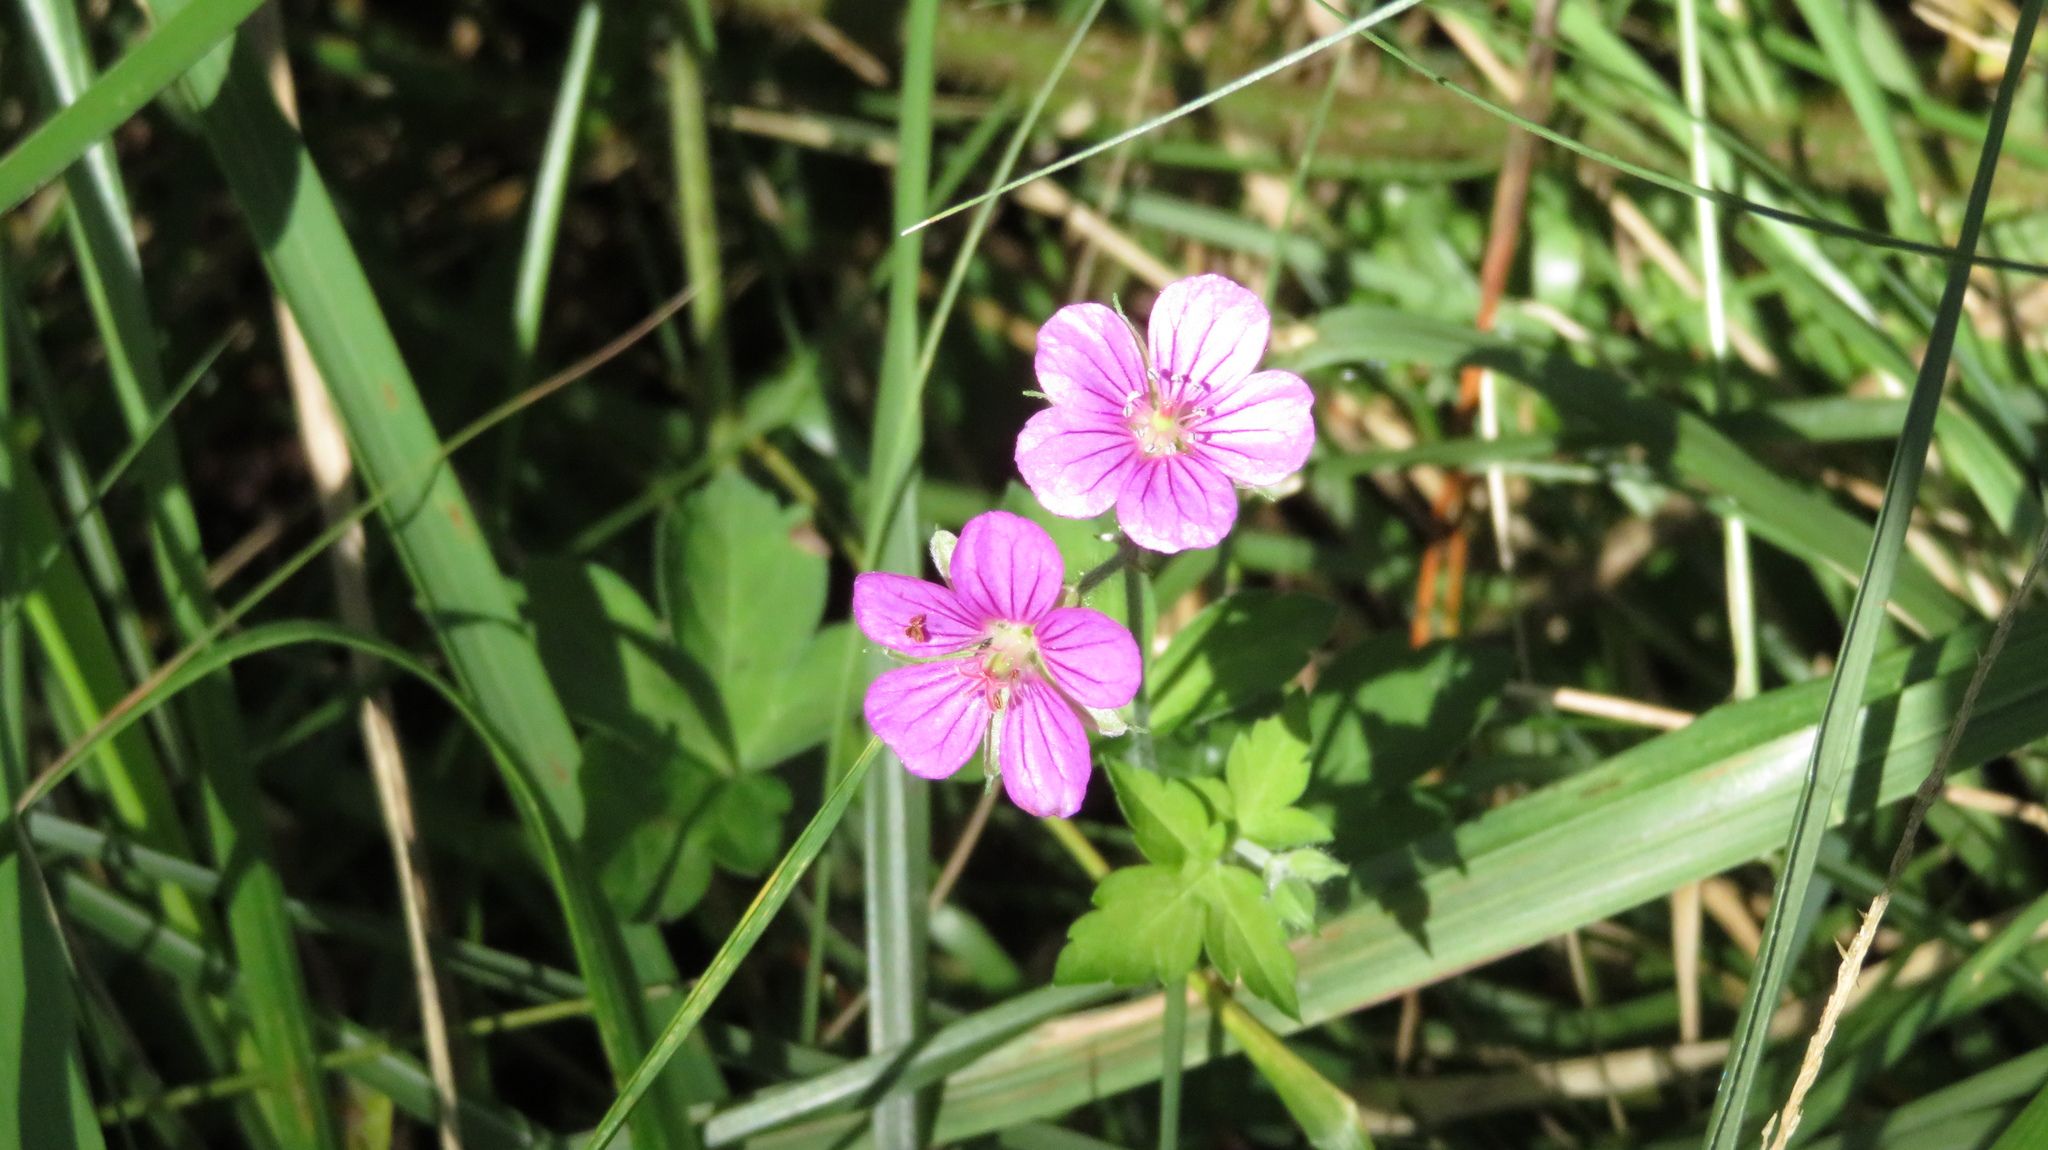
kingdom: Plantae
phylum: Tracheophyta
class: Magnoliopsida
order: Geraniales
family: Geraniaceae
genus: Geranium
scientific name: Geranium thunbergii
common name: Dewdrop crane's-bill
